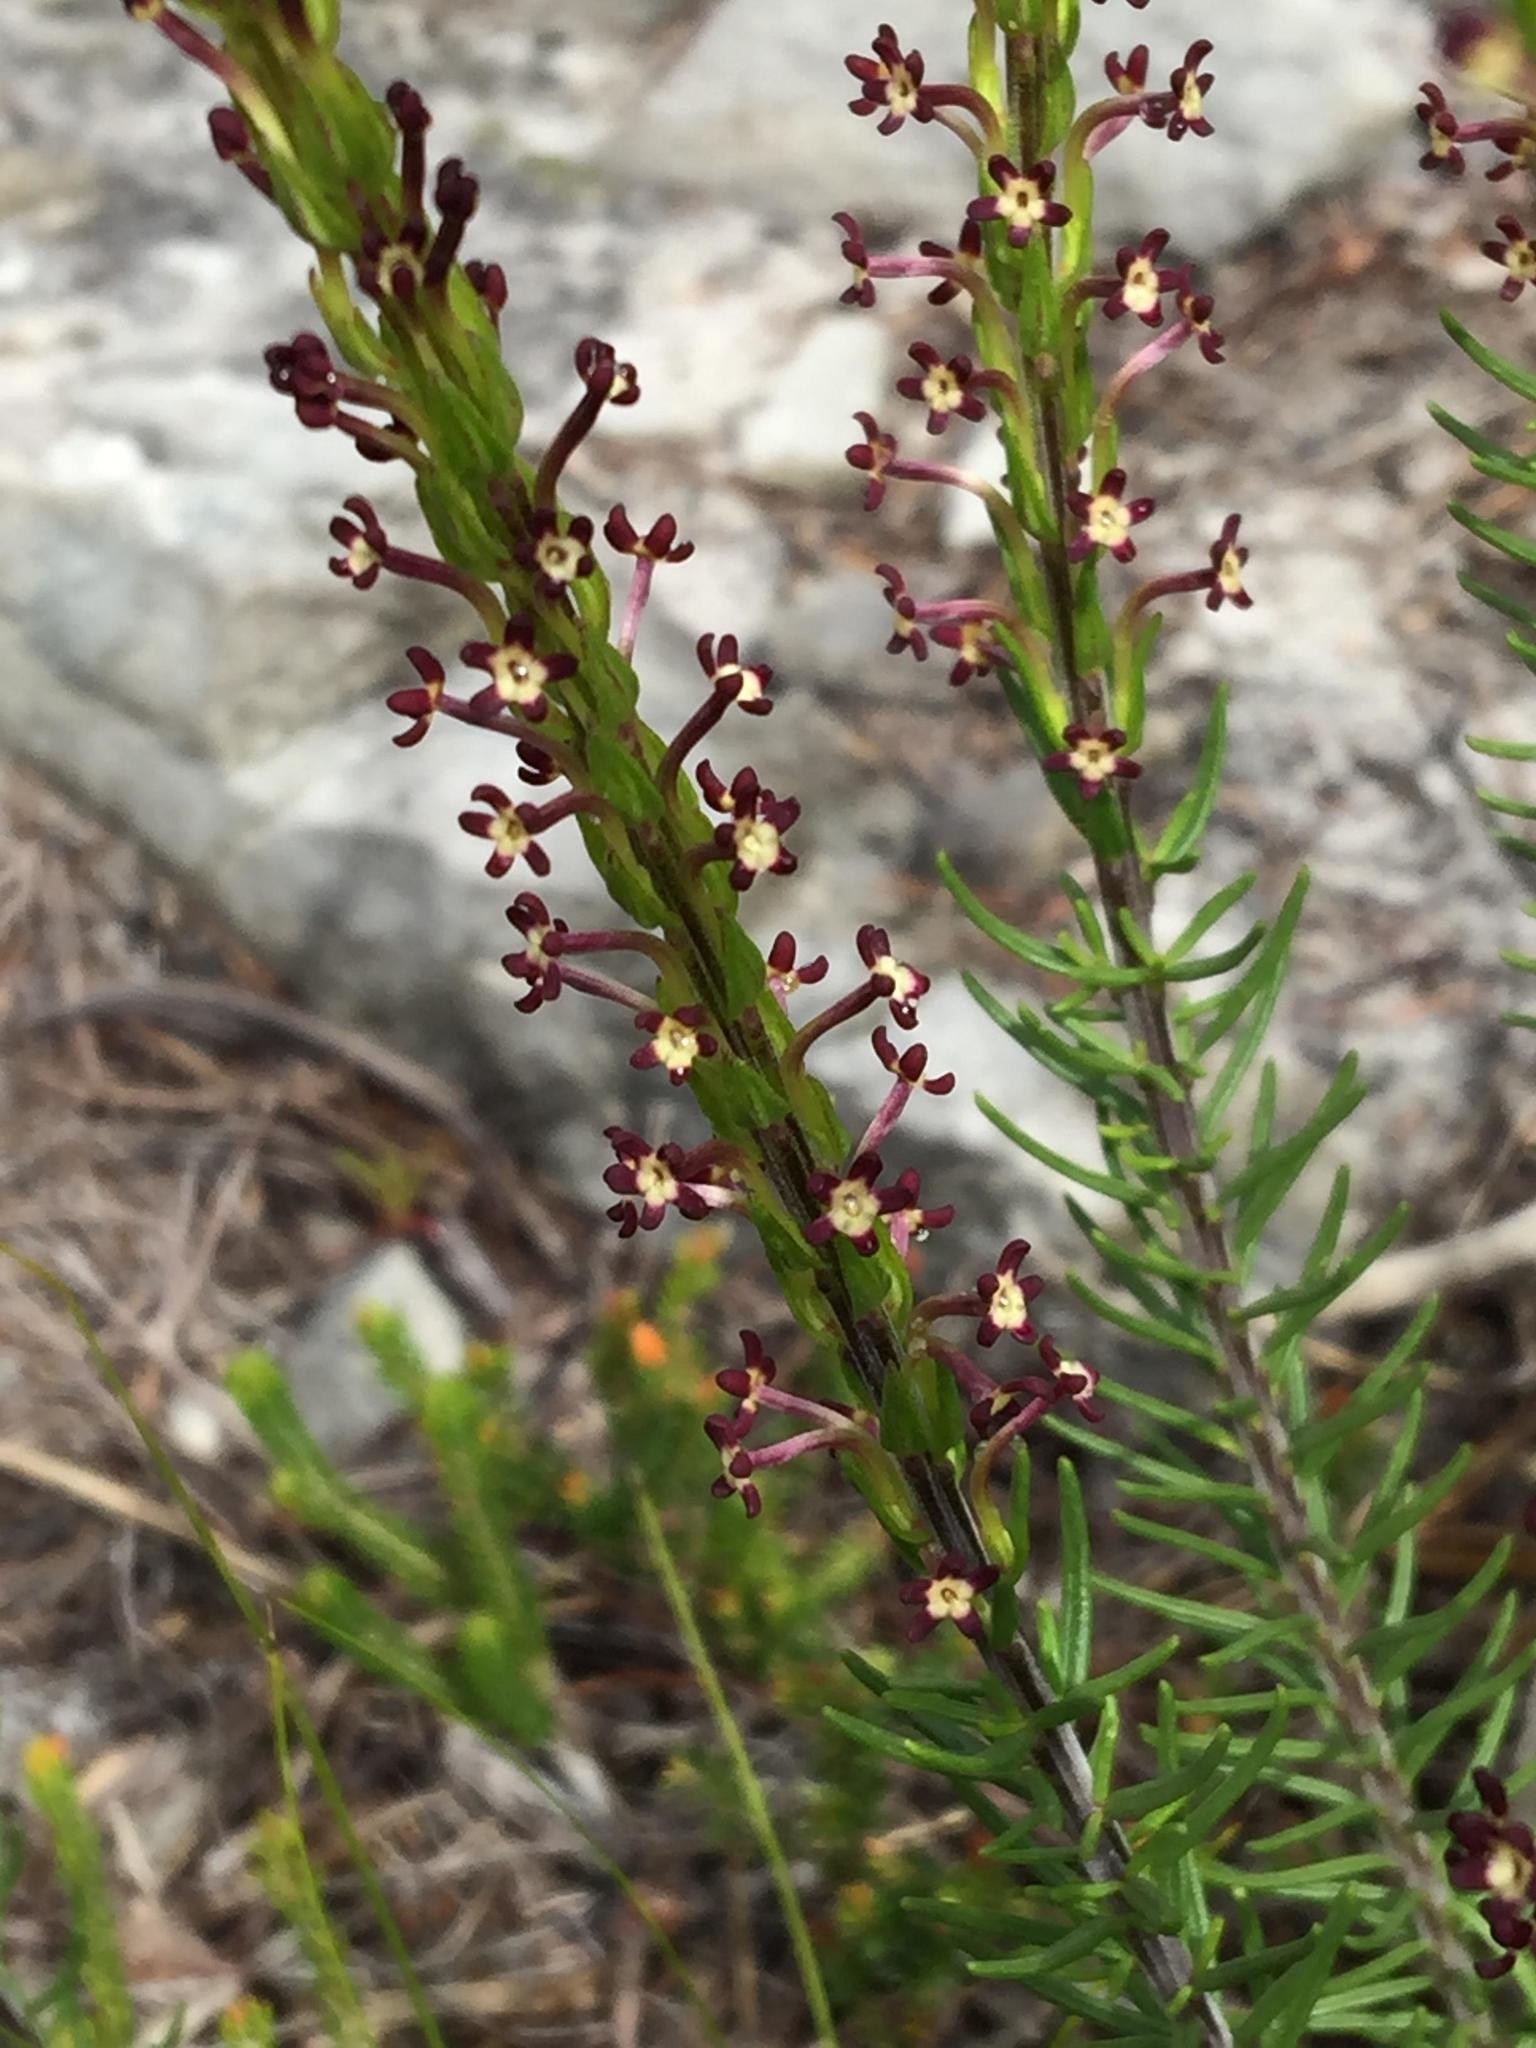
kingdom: Plantae
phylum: Tracheophyta
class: Magnoliopsida
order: Lamiales
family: Scrophulariaceae
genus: Microdon
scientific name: Microdon dubius
